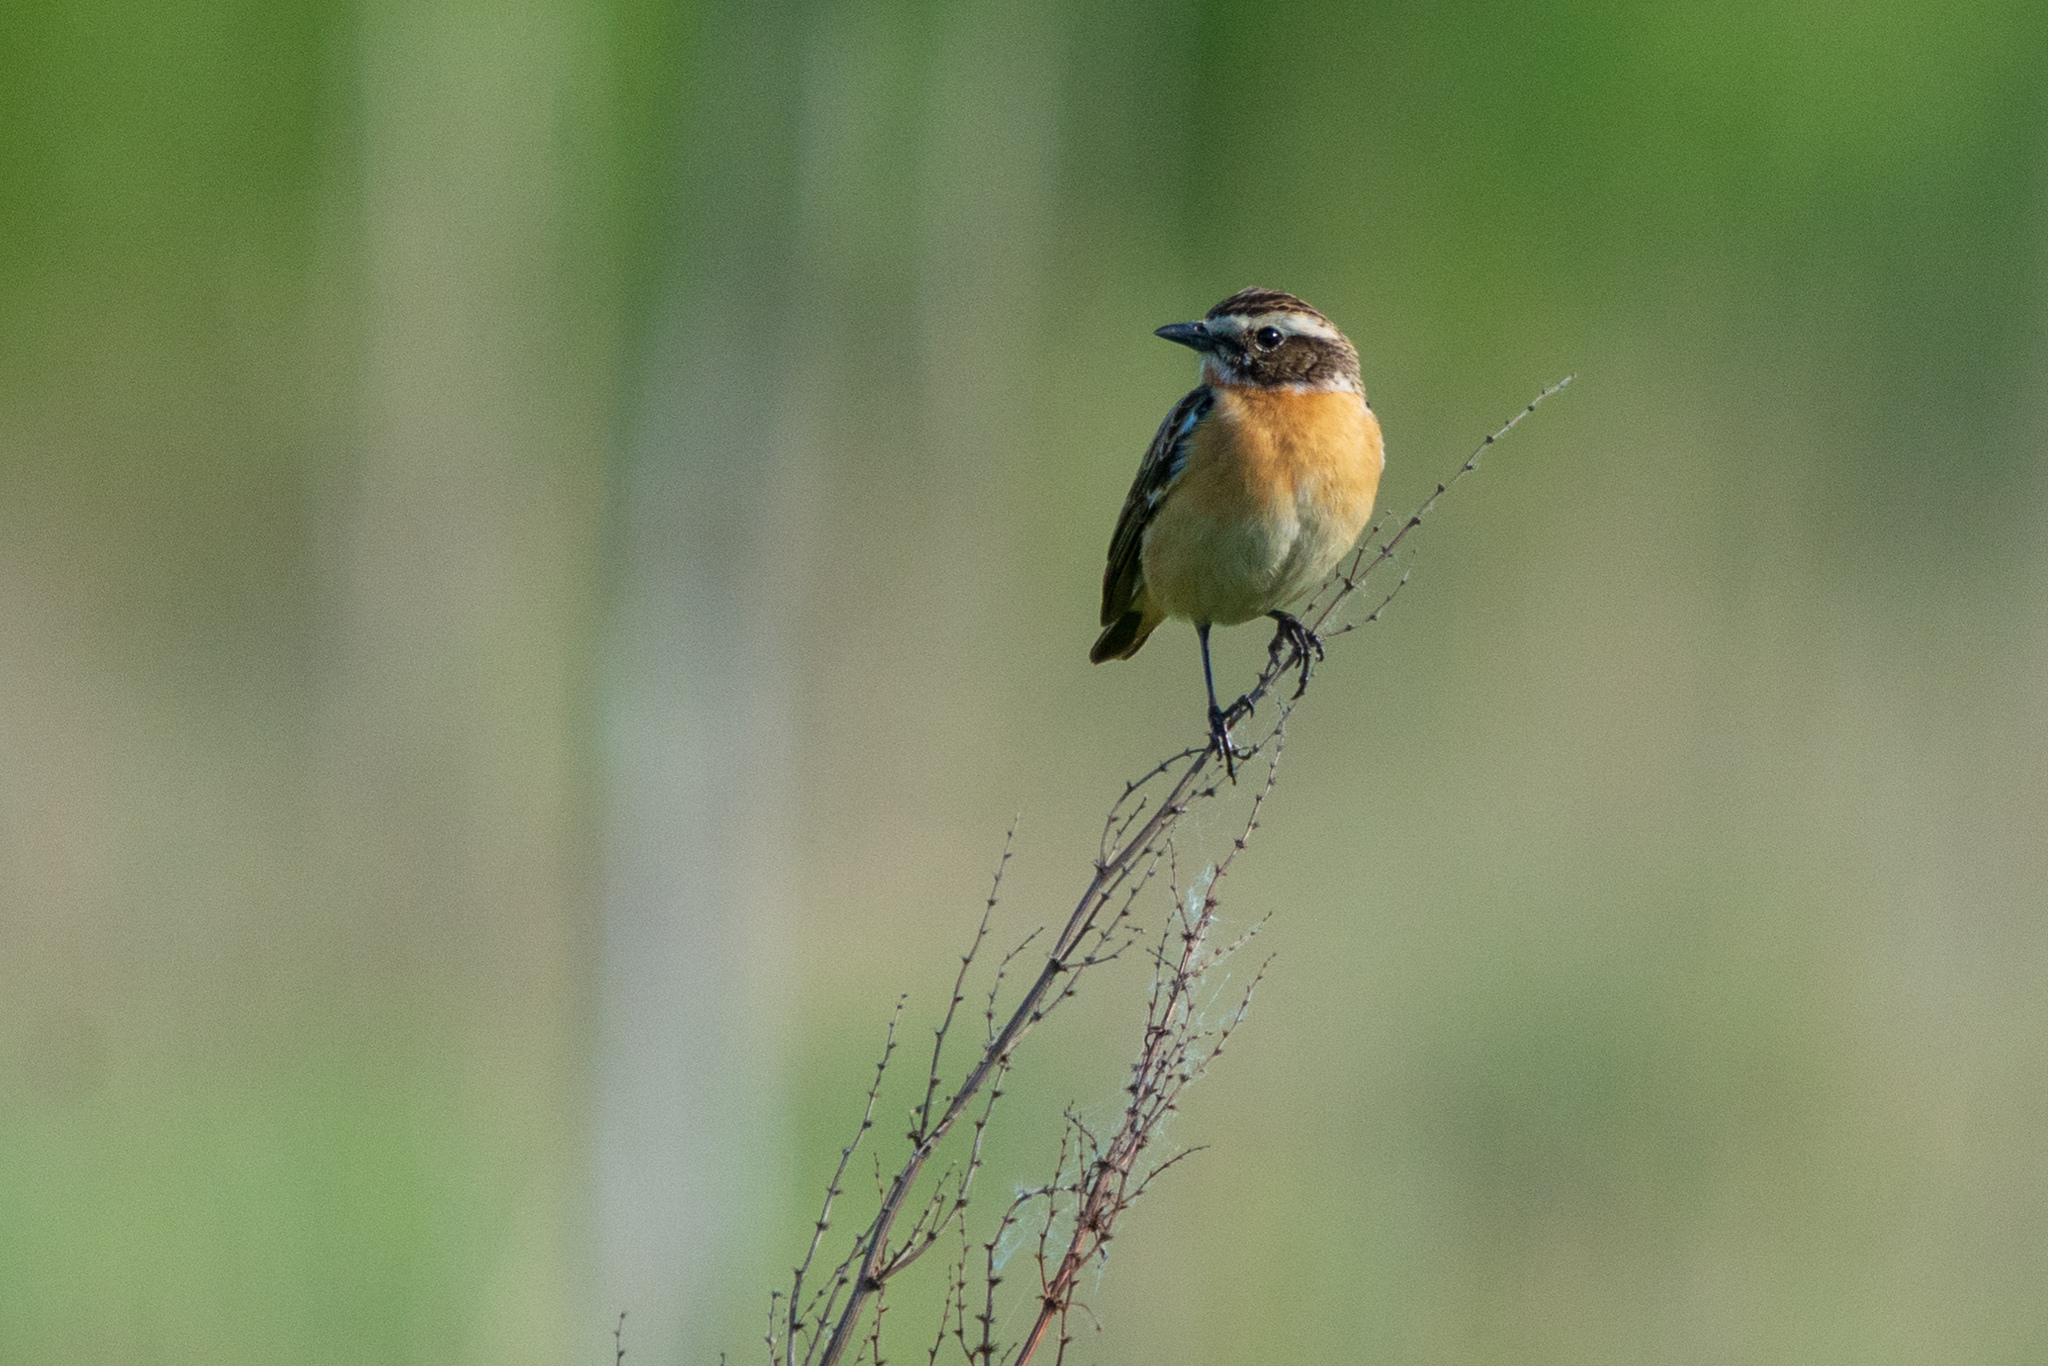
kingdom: Animalia
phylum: Chordata
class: Aves
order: Passeriformes
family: Muscicapidae
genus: Saxicola
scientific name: Saxicola rubetra
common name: Whinchat
